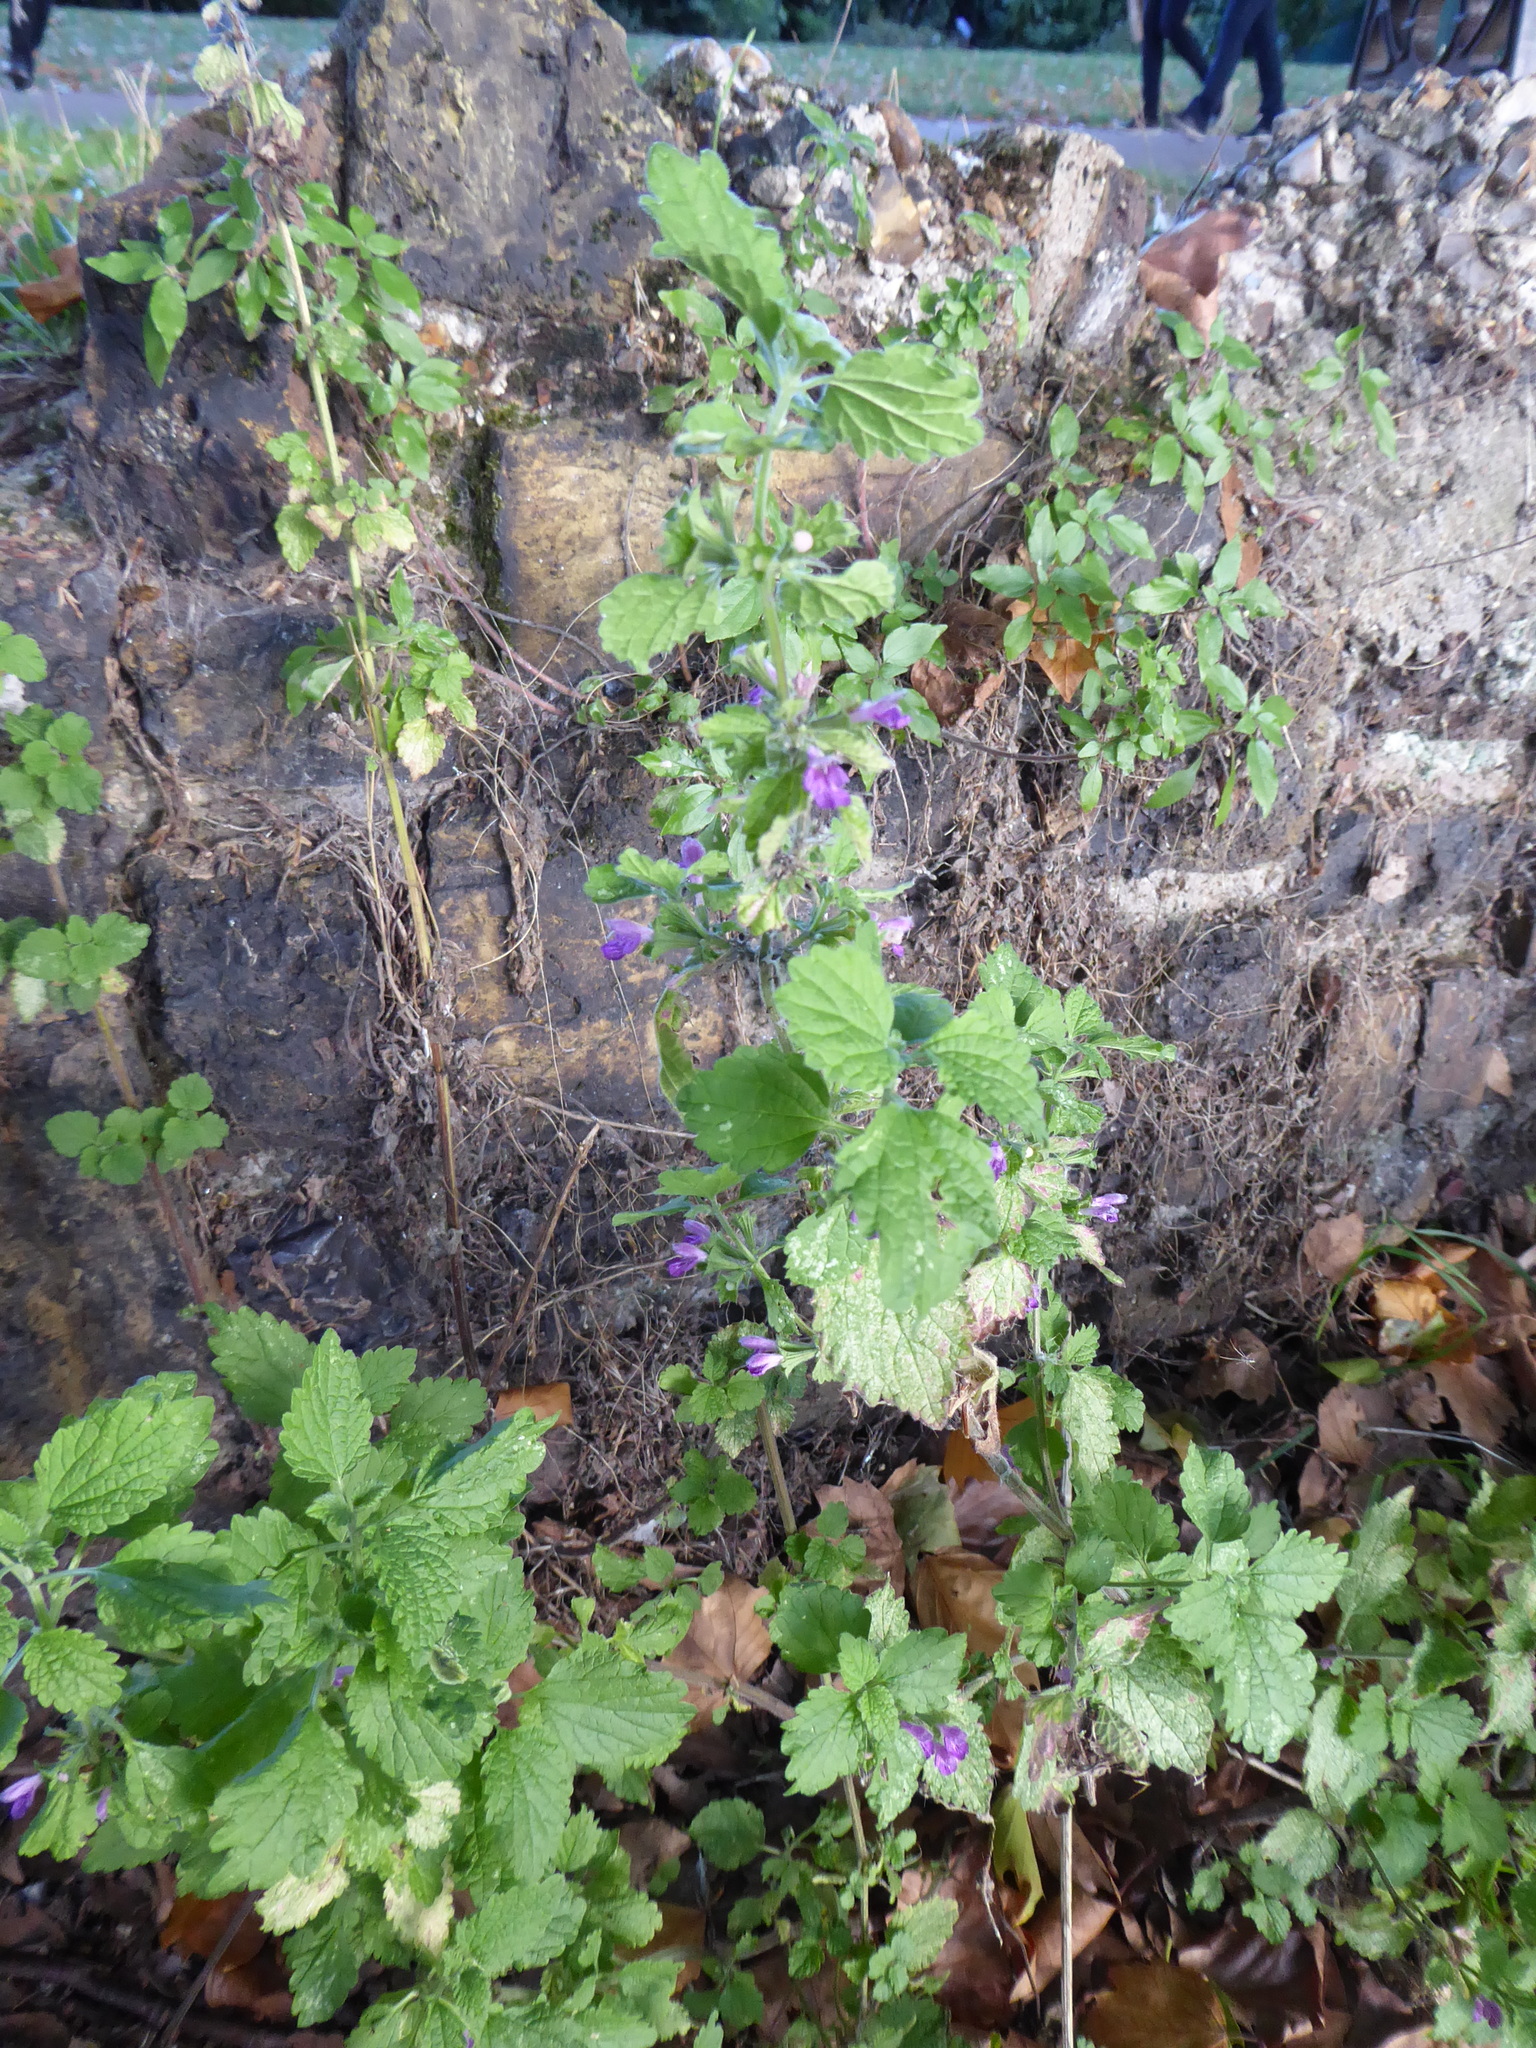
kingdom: Plantae
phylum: Tracheophyta
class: Magnoliopsida
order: Lamiales
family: Lamiaceae
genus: Ballota
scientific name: Ballota nigra
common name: Black horehound
